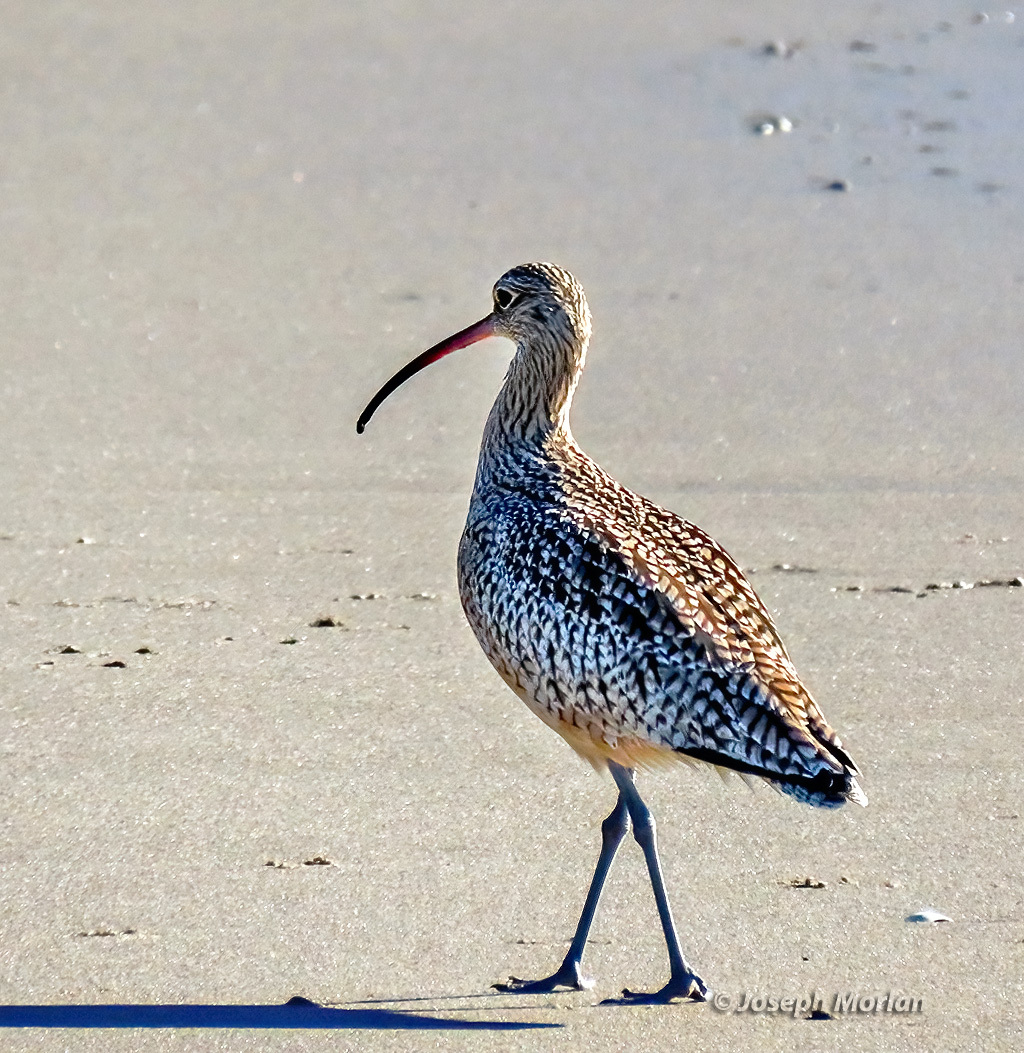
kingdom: Animalia
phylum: Chordata
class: Aves
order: Charadriiformes
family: Scolopacidae
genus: Numenius
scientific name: Numenius americanus
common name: Long-billed curlew
